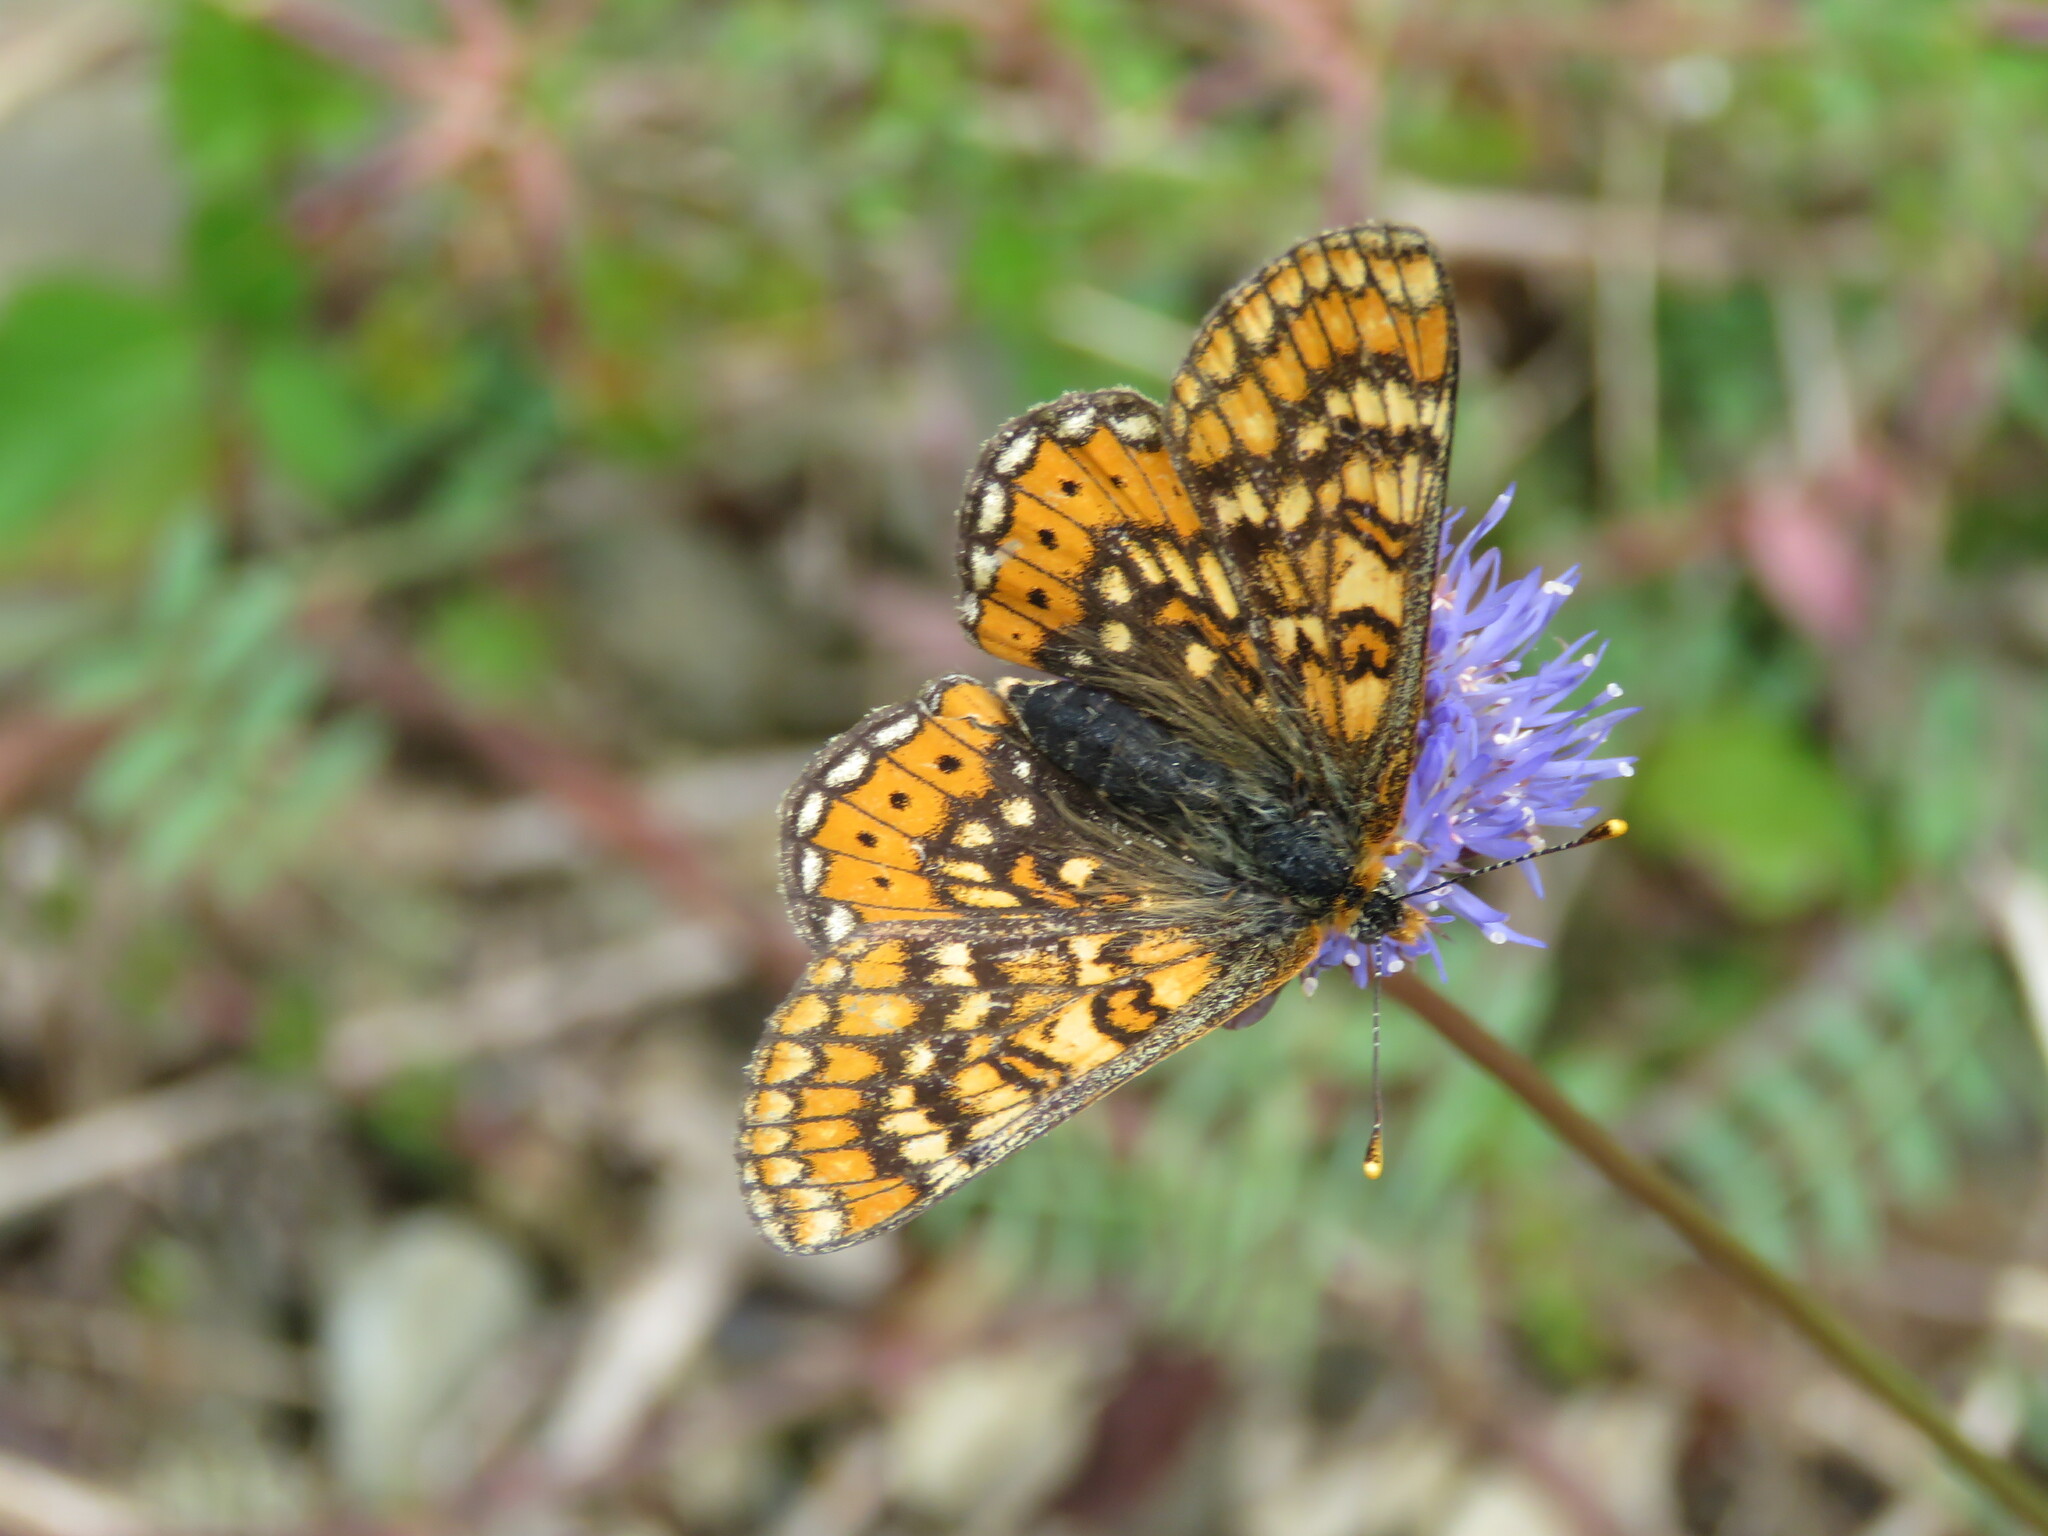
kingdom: Animalia
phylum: Arthropoda
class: Insecta
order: Lepidoptera
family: Nymphalidae
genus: Euphydryas
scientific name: Euphydryas aurinia
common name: Marsh fritillary
